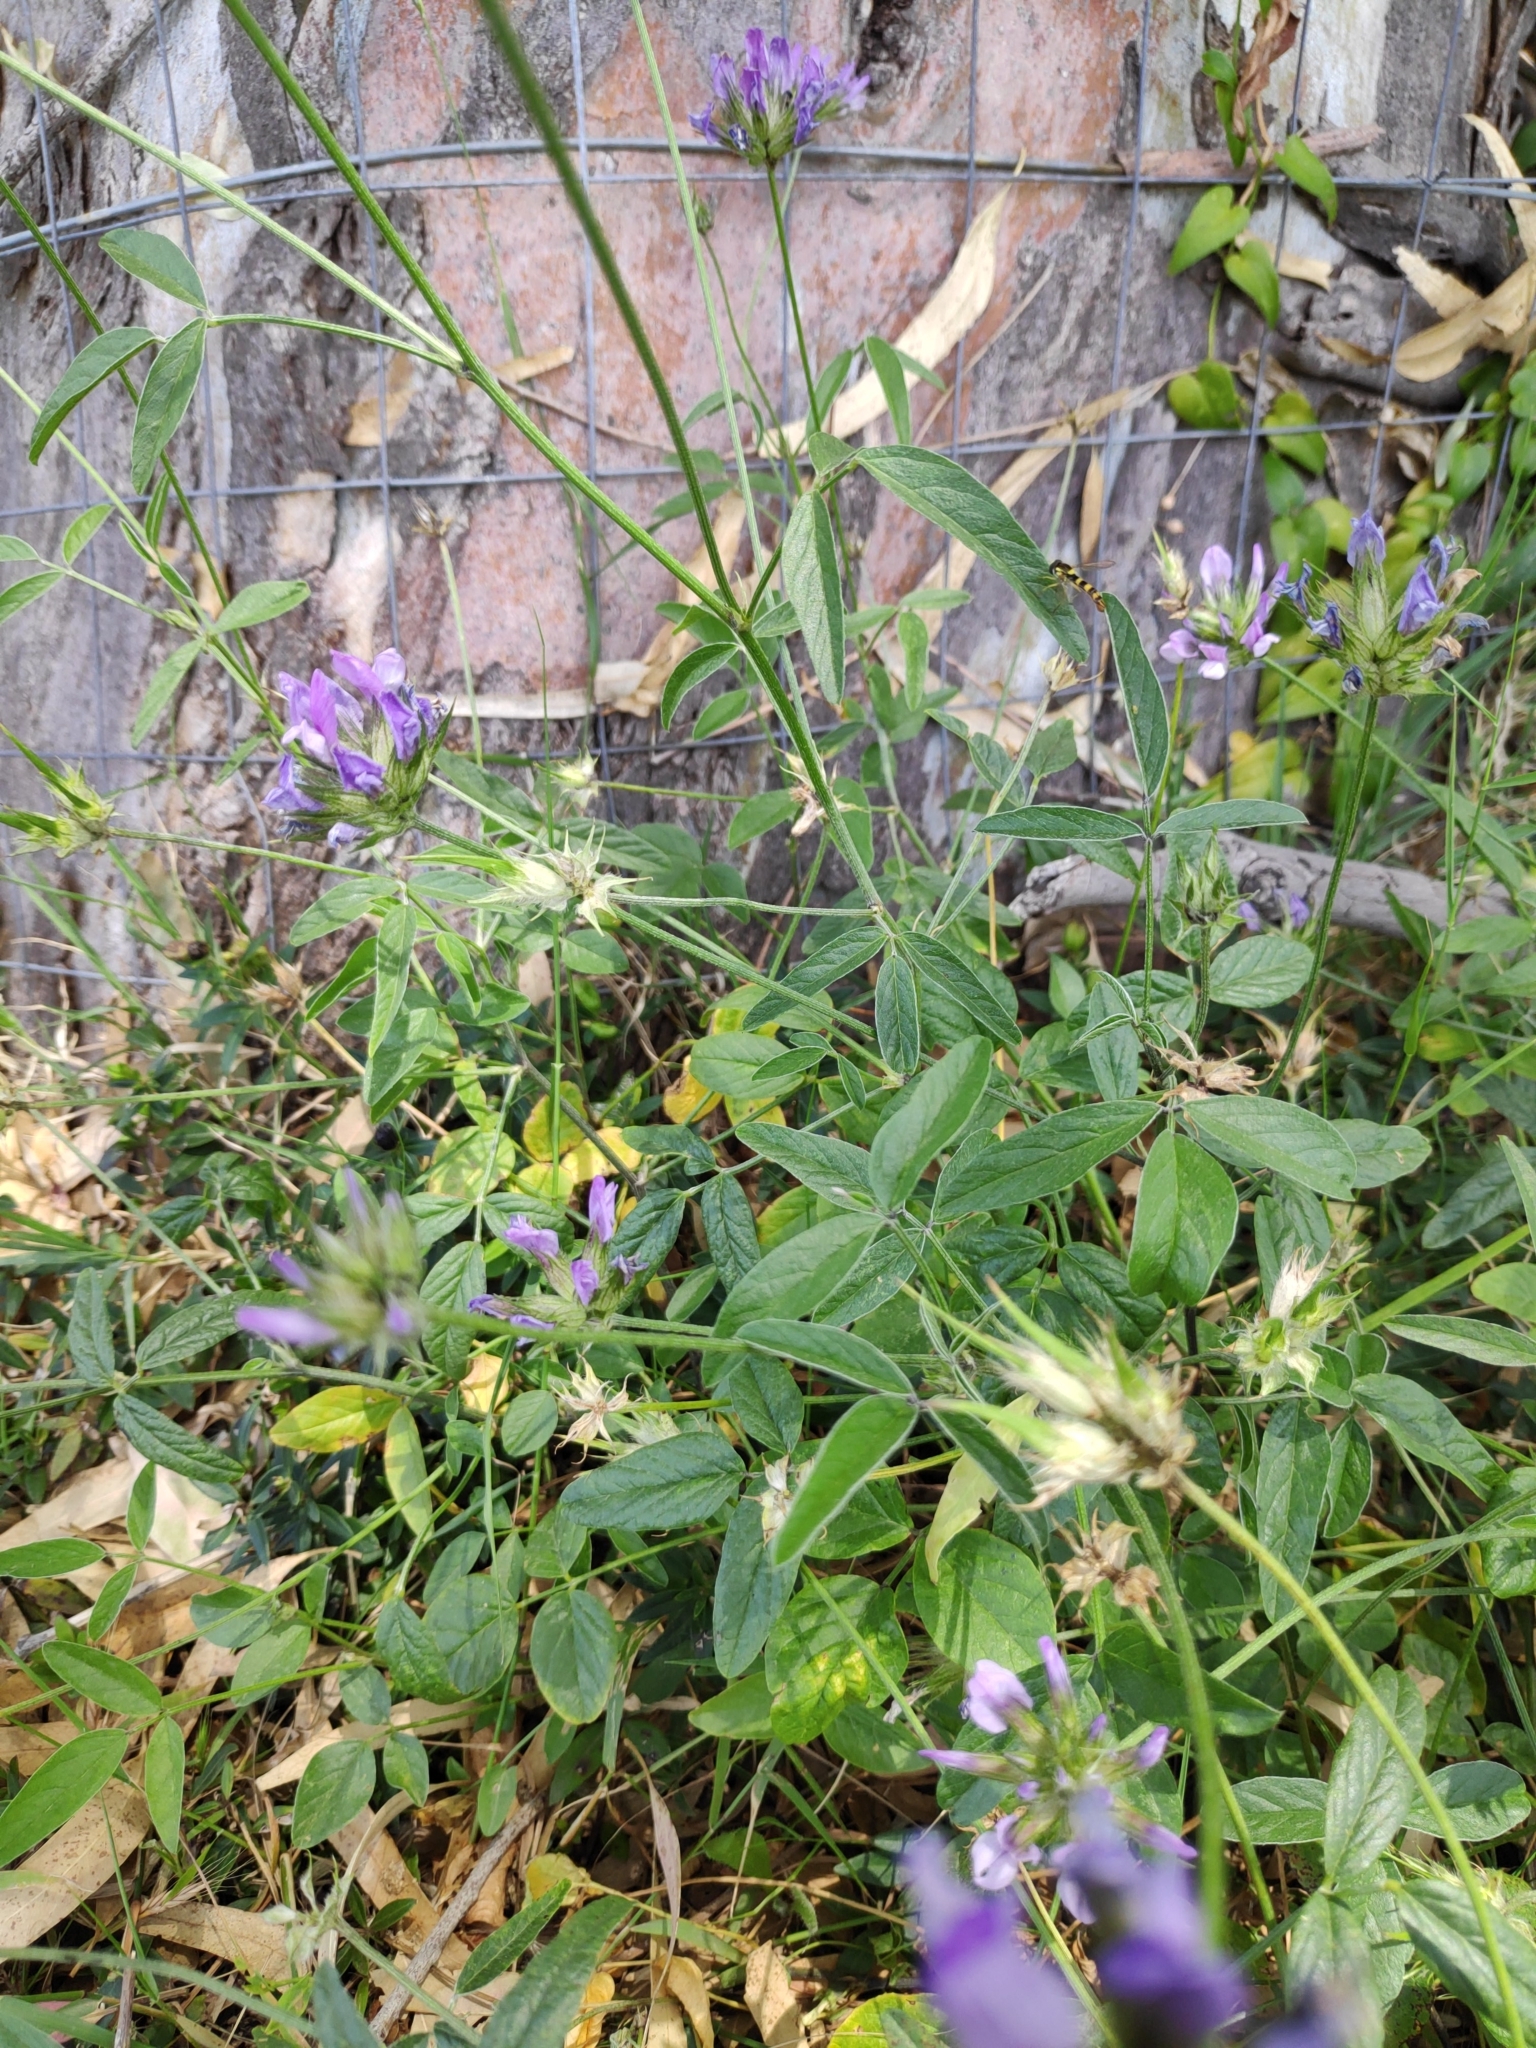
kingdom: Plantae
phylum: Tracheophyta
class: Magnoliopsida
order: Fabales
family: Fabaceae
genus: Bituminaria
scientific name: Bituminaria bituminosa
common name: Arabian pea
